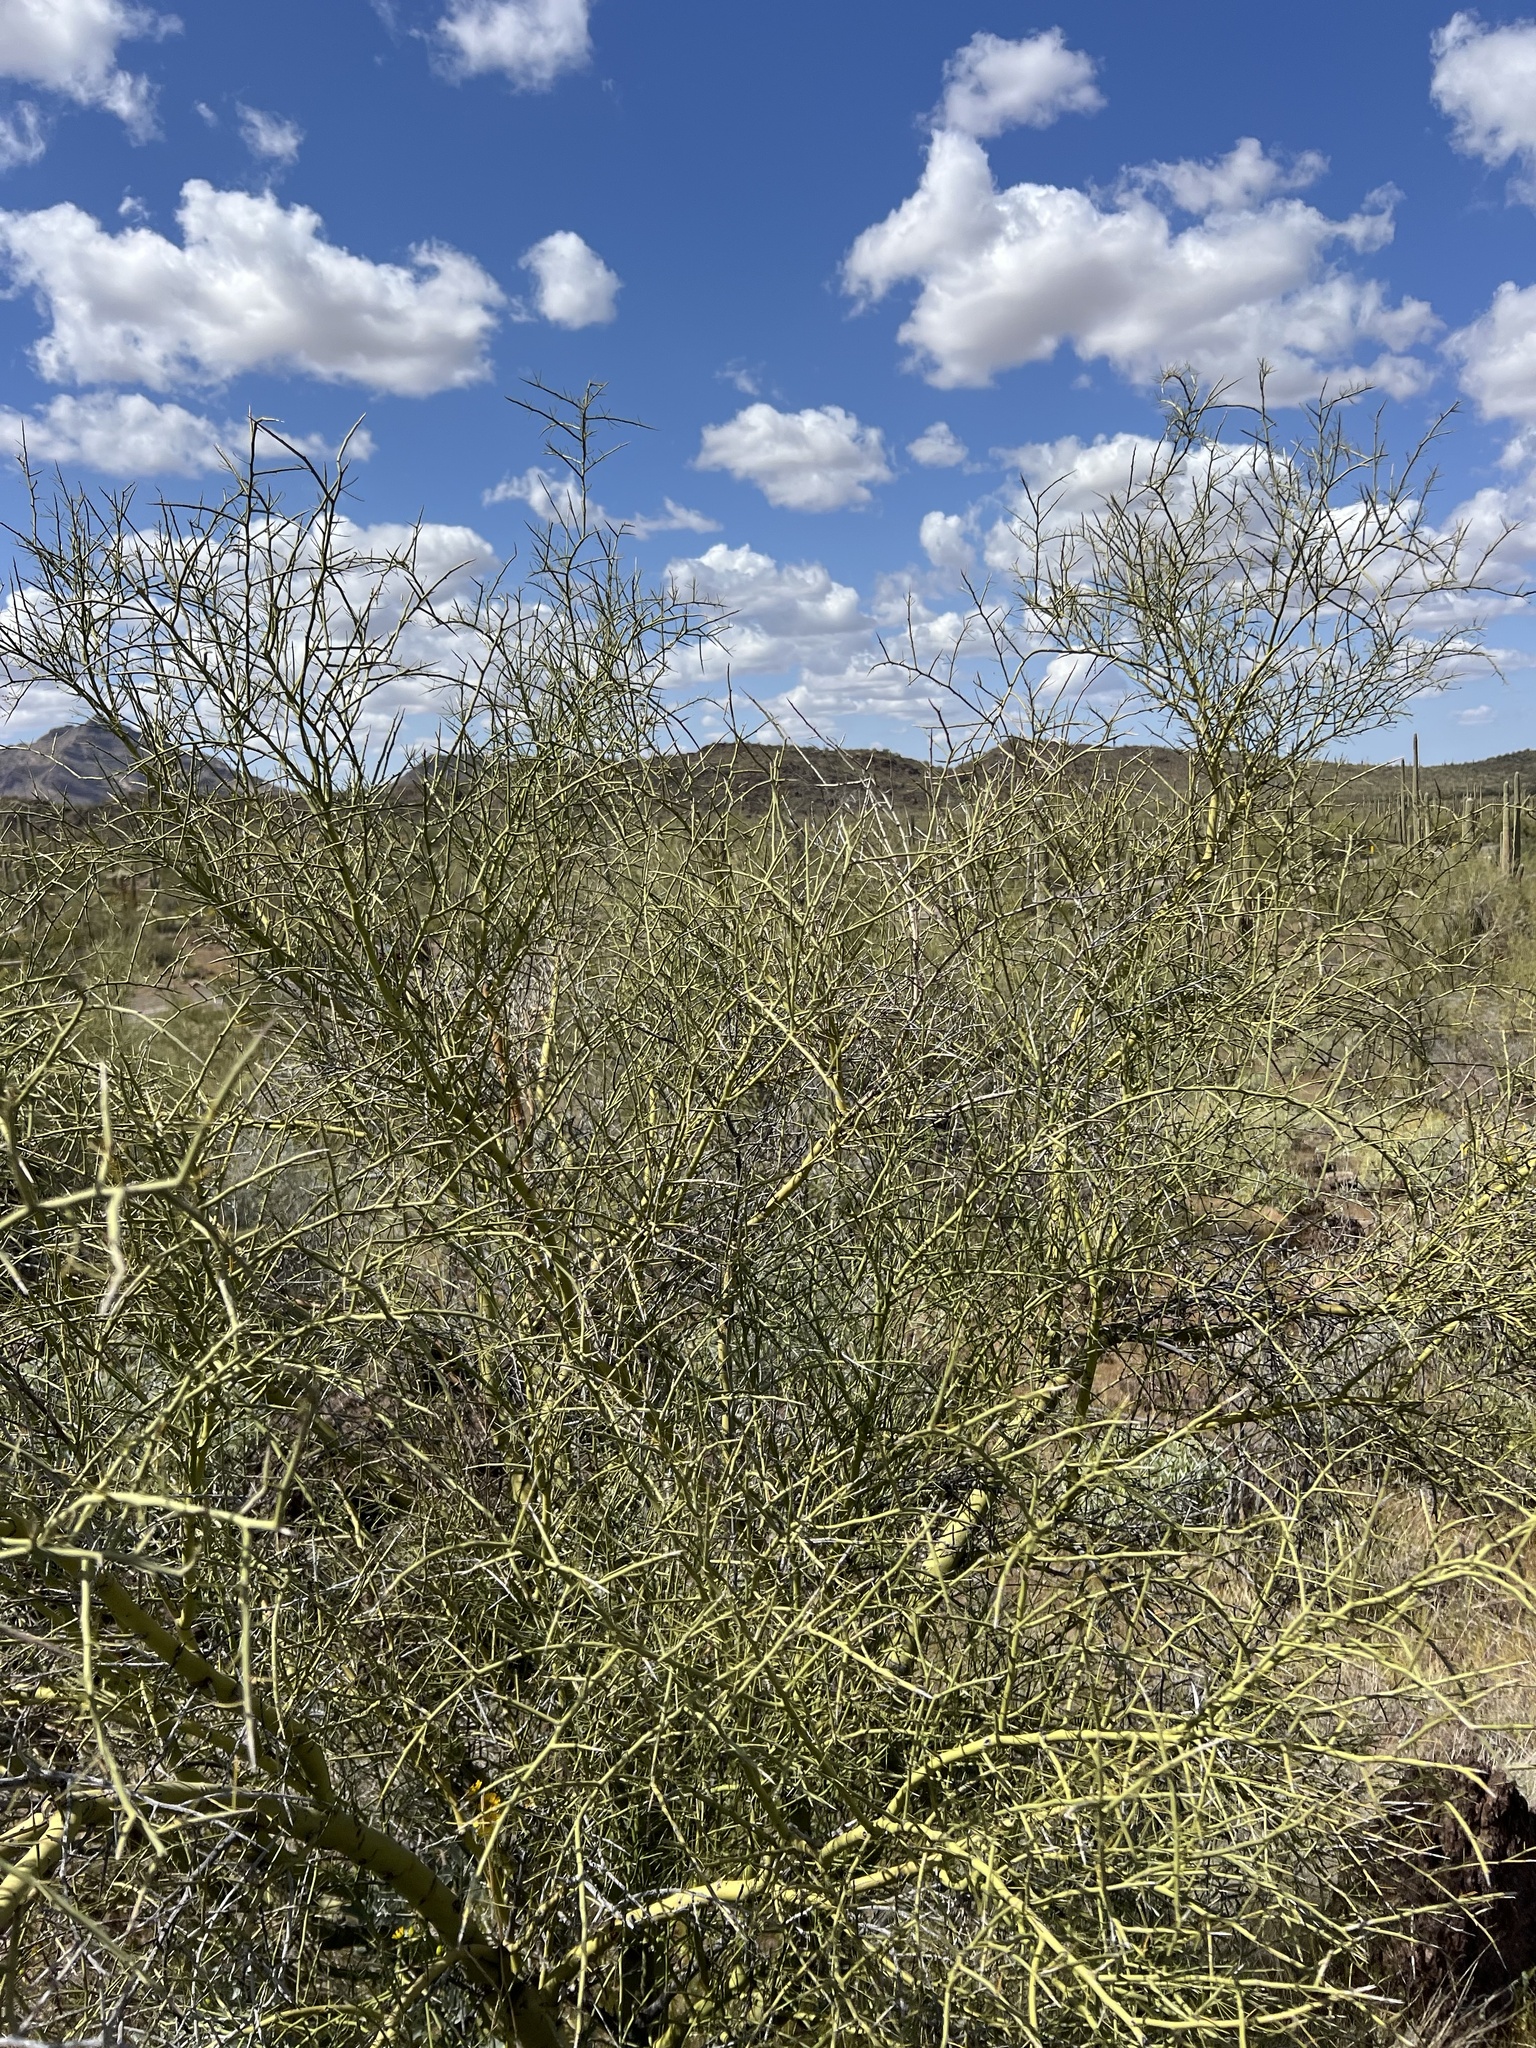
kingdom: Plantae
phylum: Tracheophyta
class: Magnoliopsida
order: Fabales
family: Fabaceae
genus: Parkinsonia
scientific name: Parkinsonia microphylla
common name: Yellow paloverde
